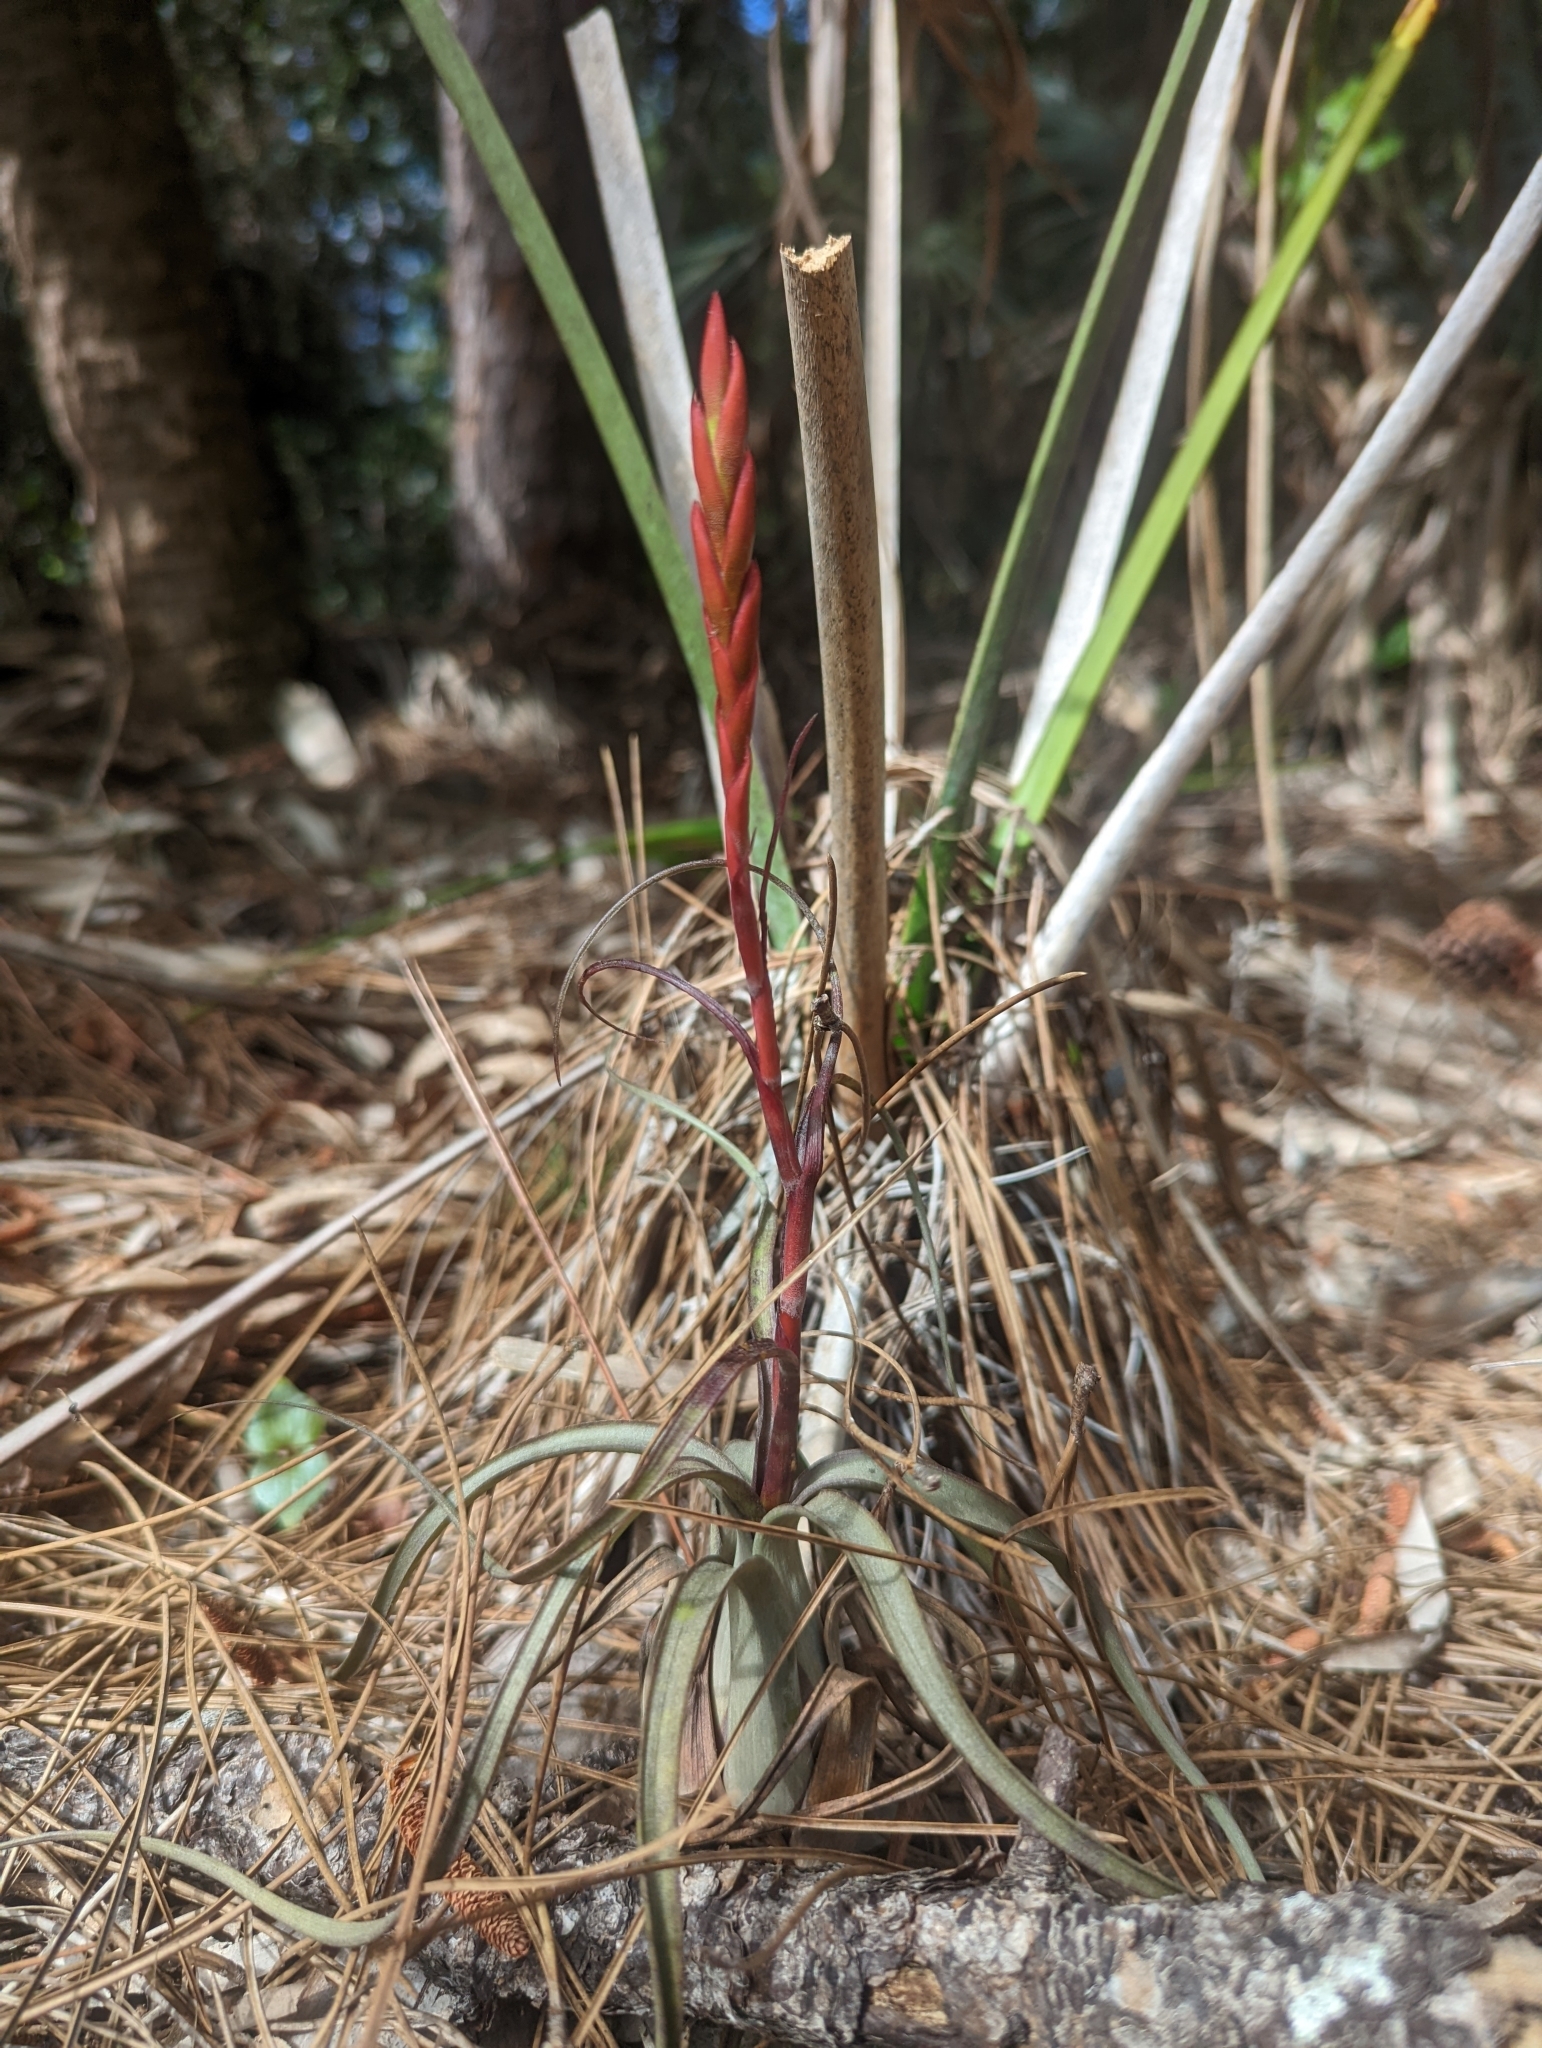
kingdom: Plantae
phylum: Tracheophyta
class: Liliopsida
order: Poales
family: Bromeliaceae
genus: Tillandsia
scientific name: Tillandsia balbisiana
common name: Northern needleleaf
